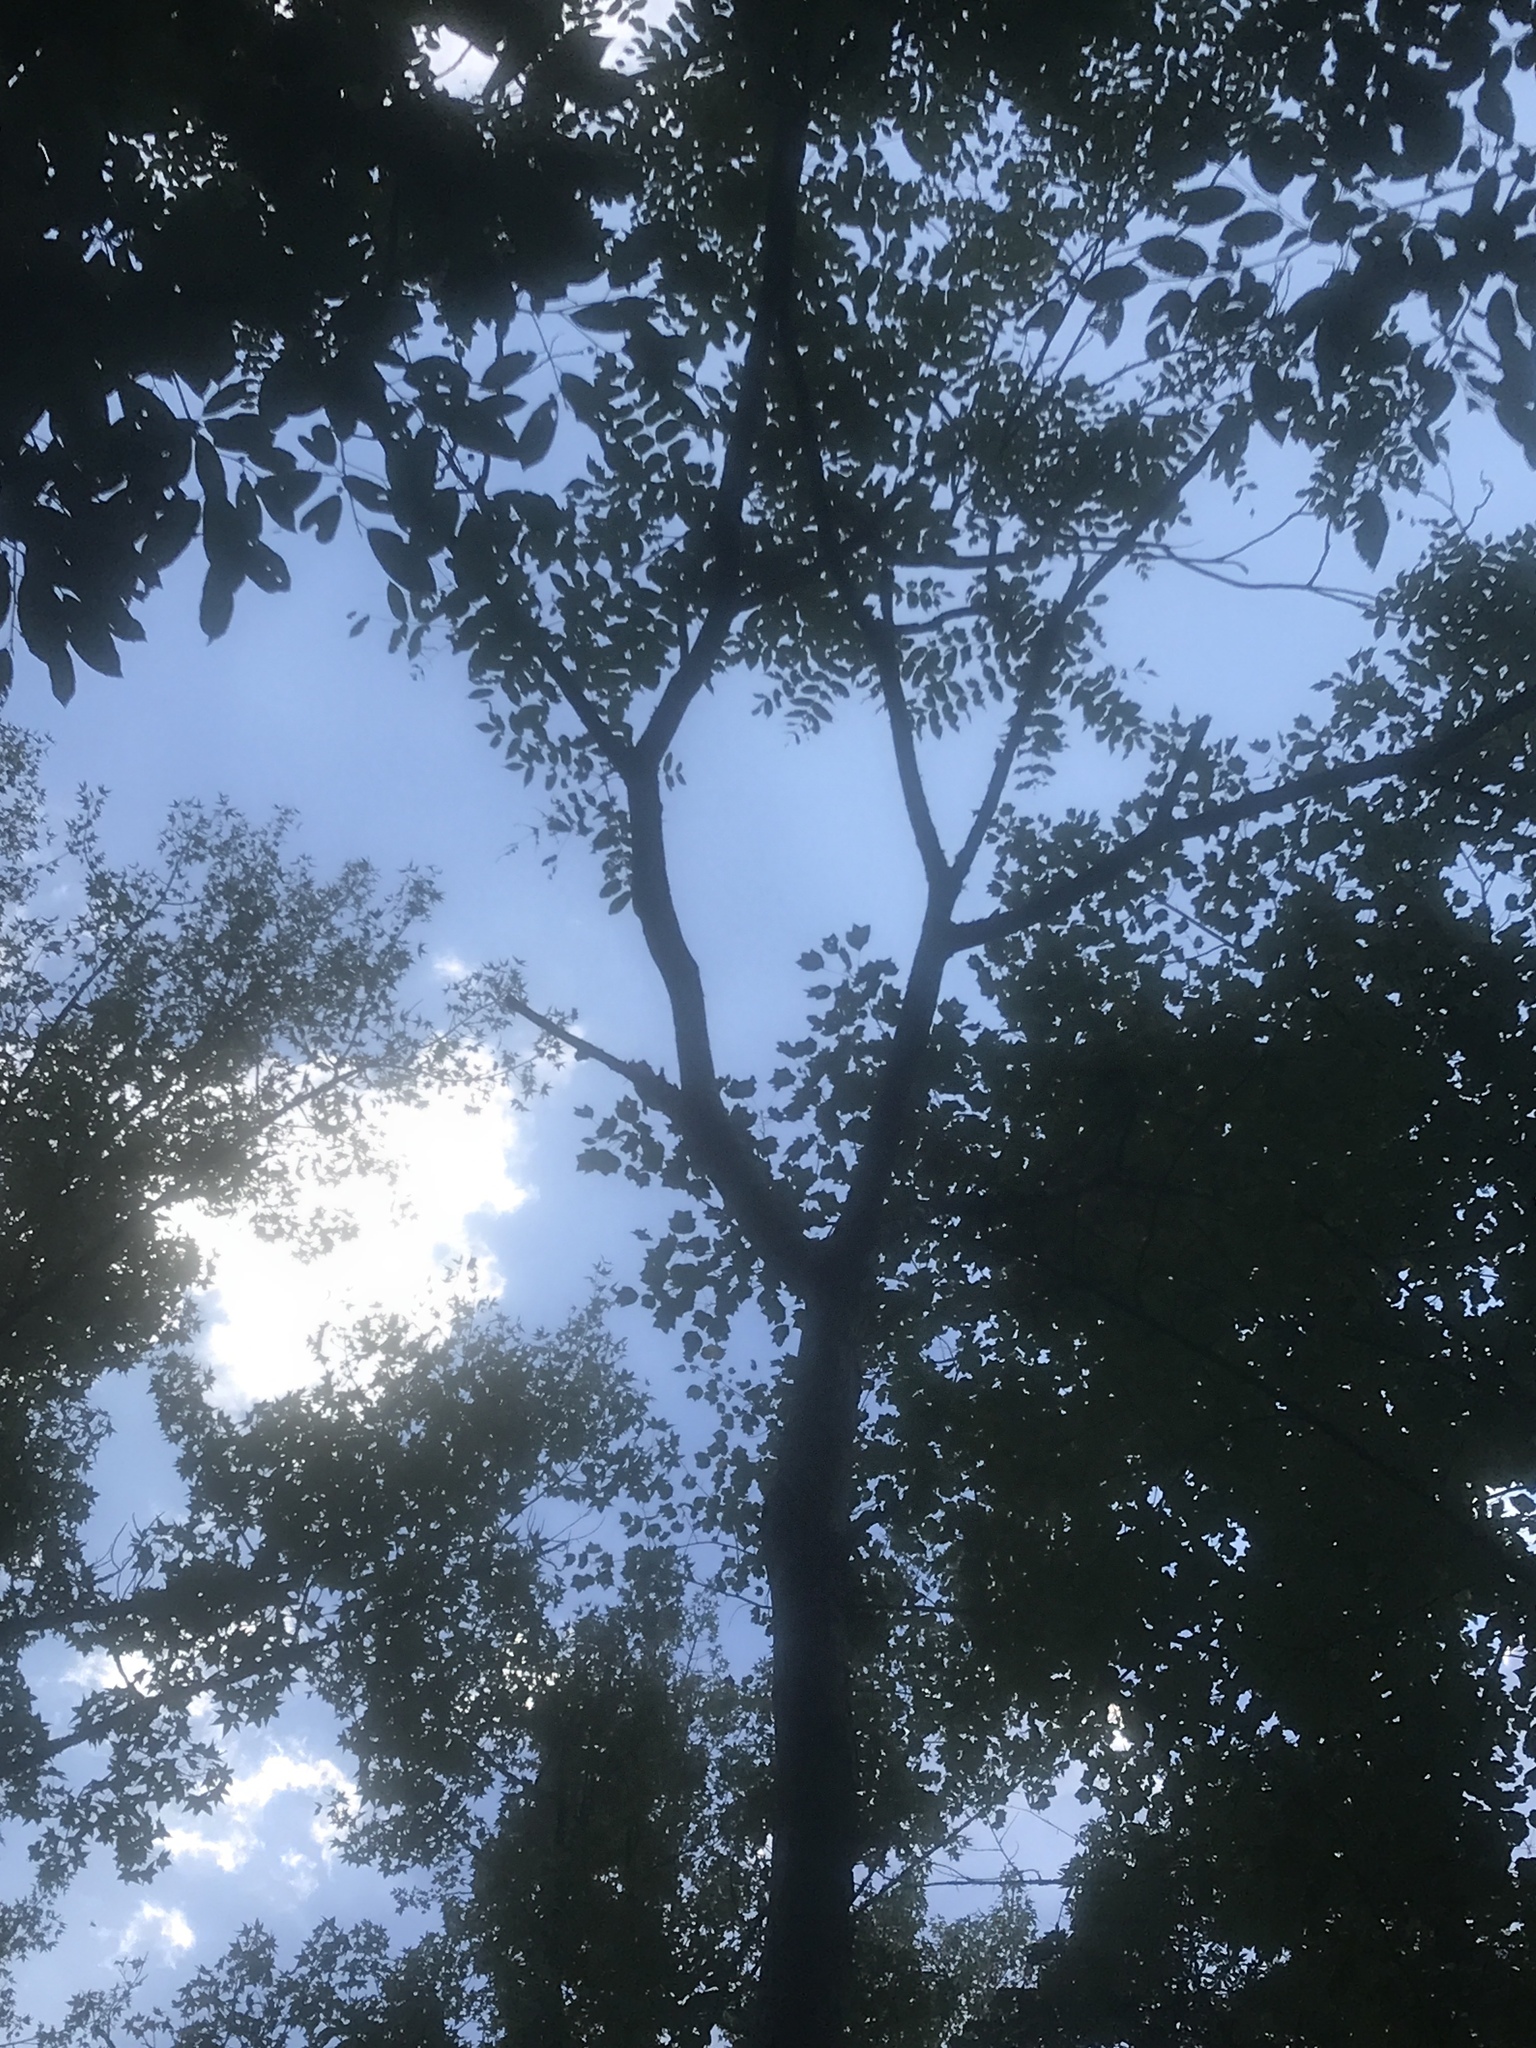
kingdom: Plantae
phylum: Tracheophyta
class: Magnoliopsida
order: Fagales
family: Juglandaceae
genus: Juglans
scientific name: Juglans cinerea
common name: Butternut
